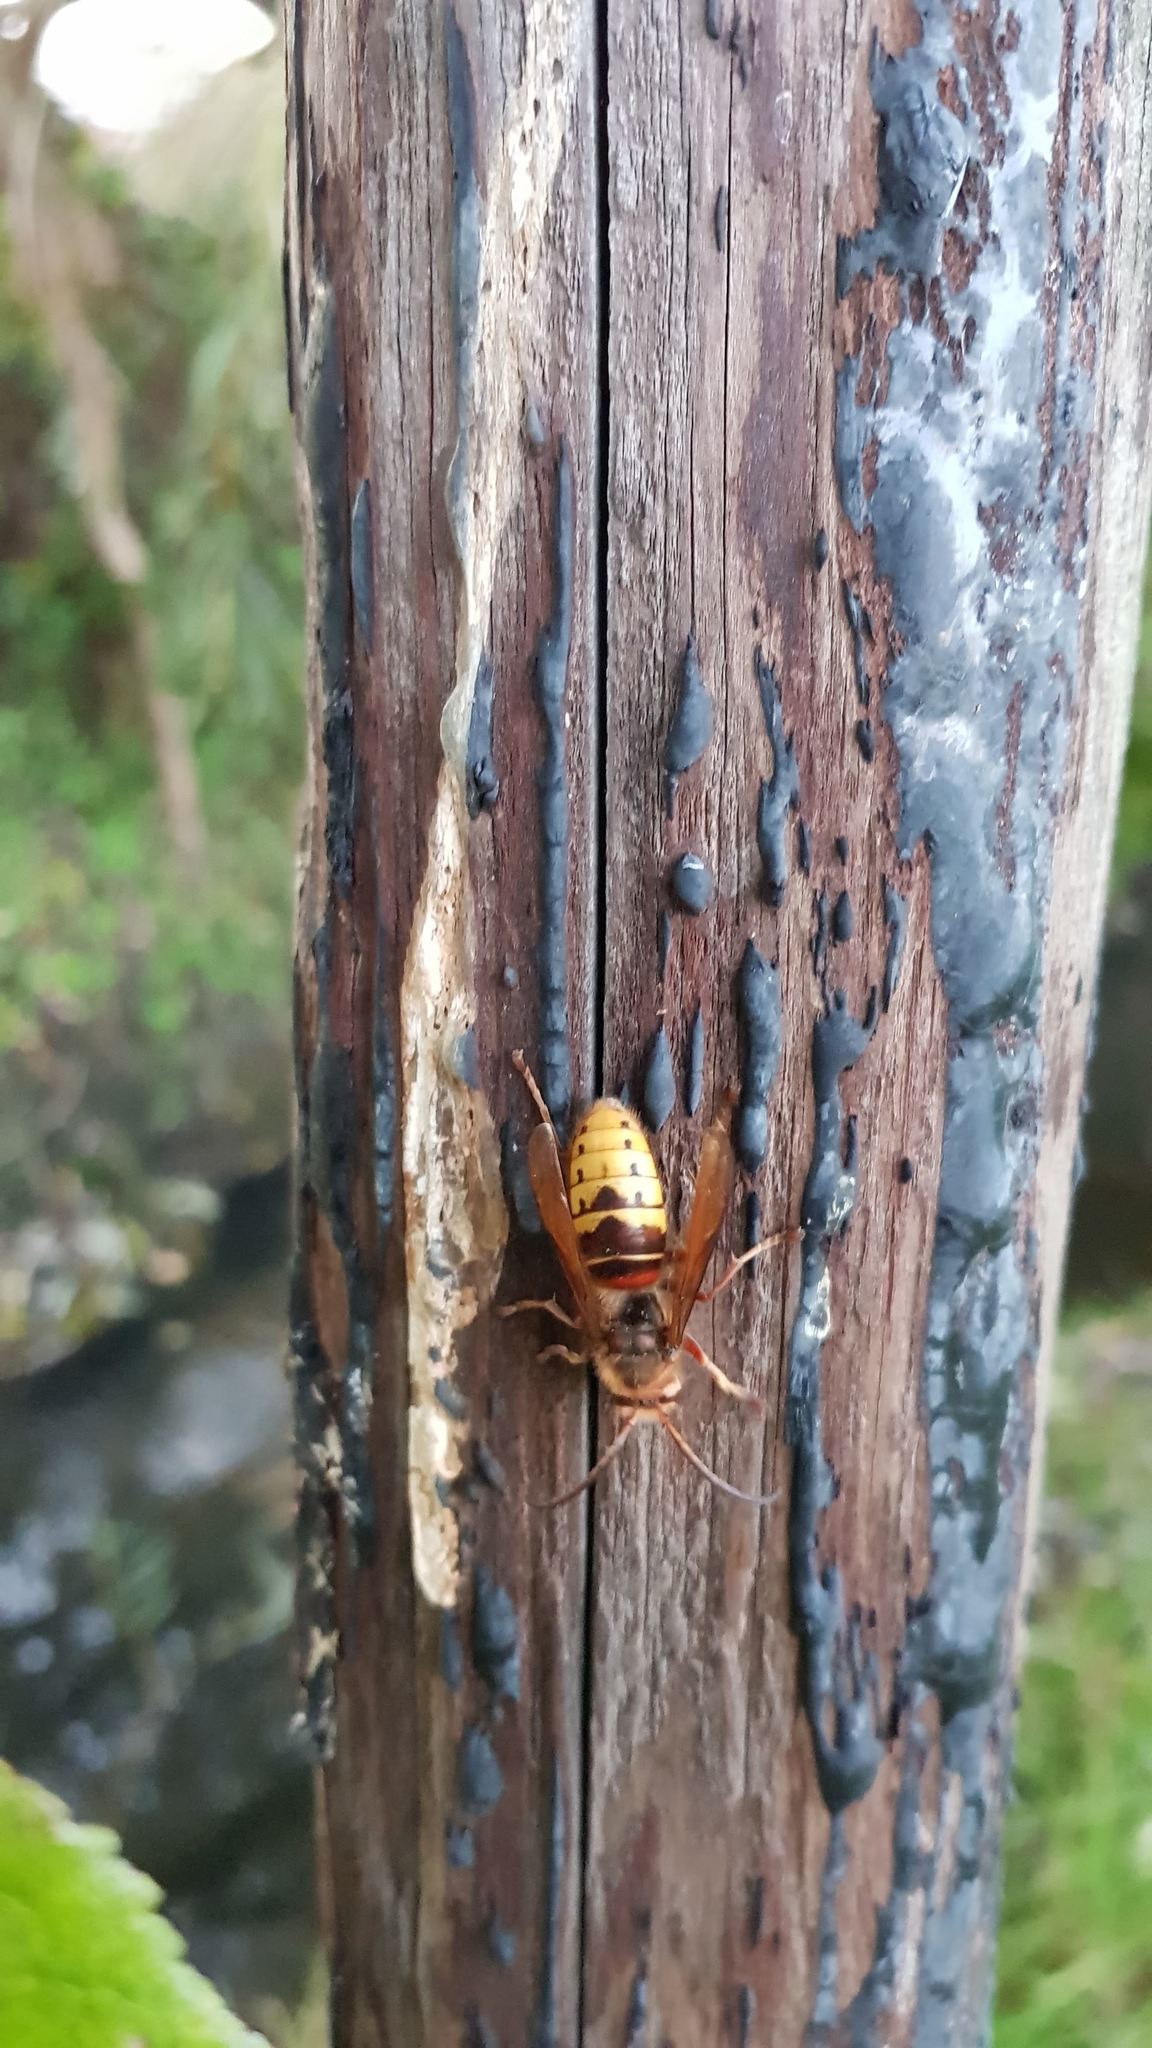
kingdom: Animalia
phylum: Arthropoda
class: Insecta
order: Hymenoptera
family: Vespidae
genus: Vespa
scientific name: Vespa crabro
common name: Hornet
